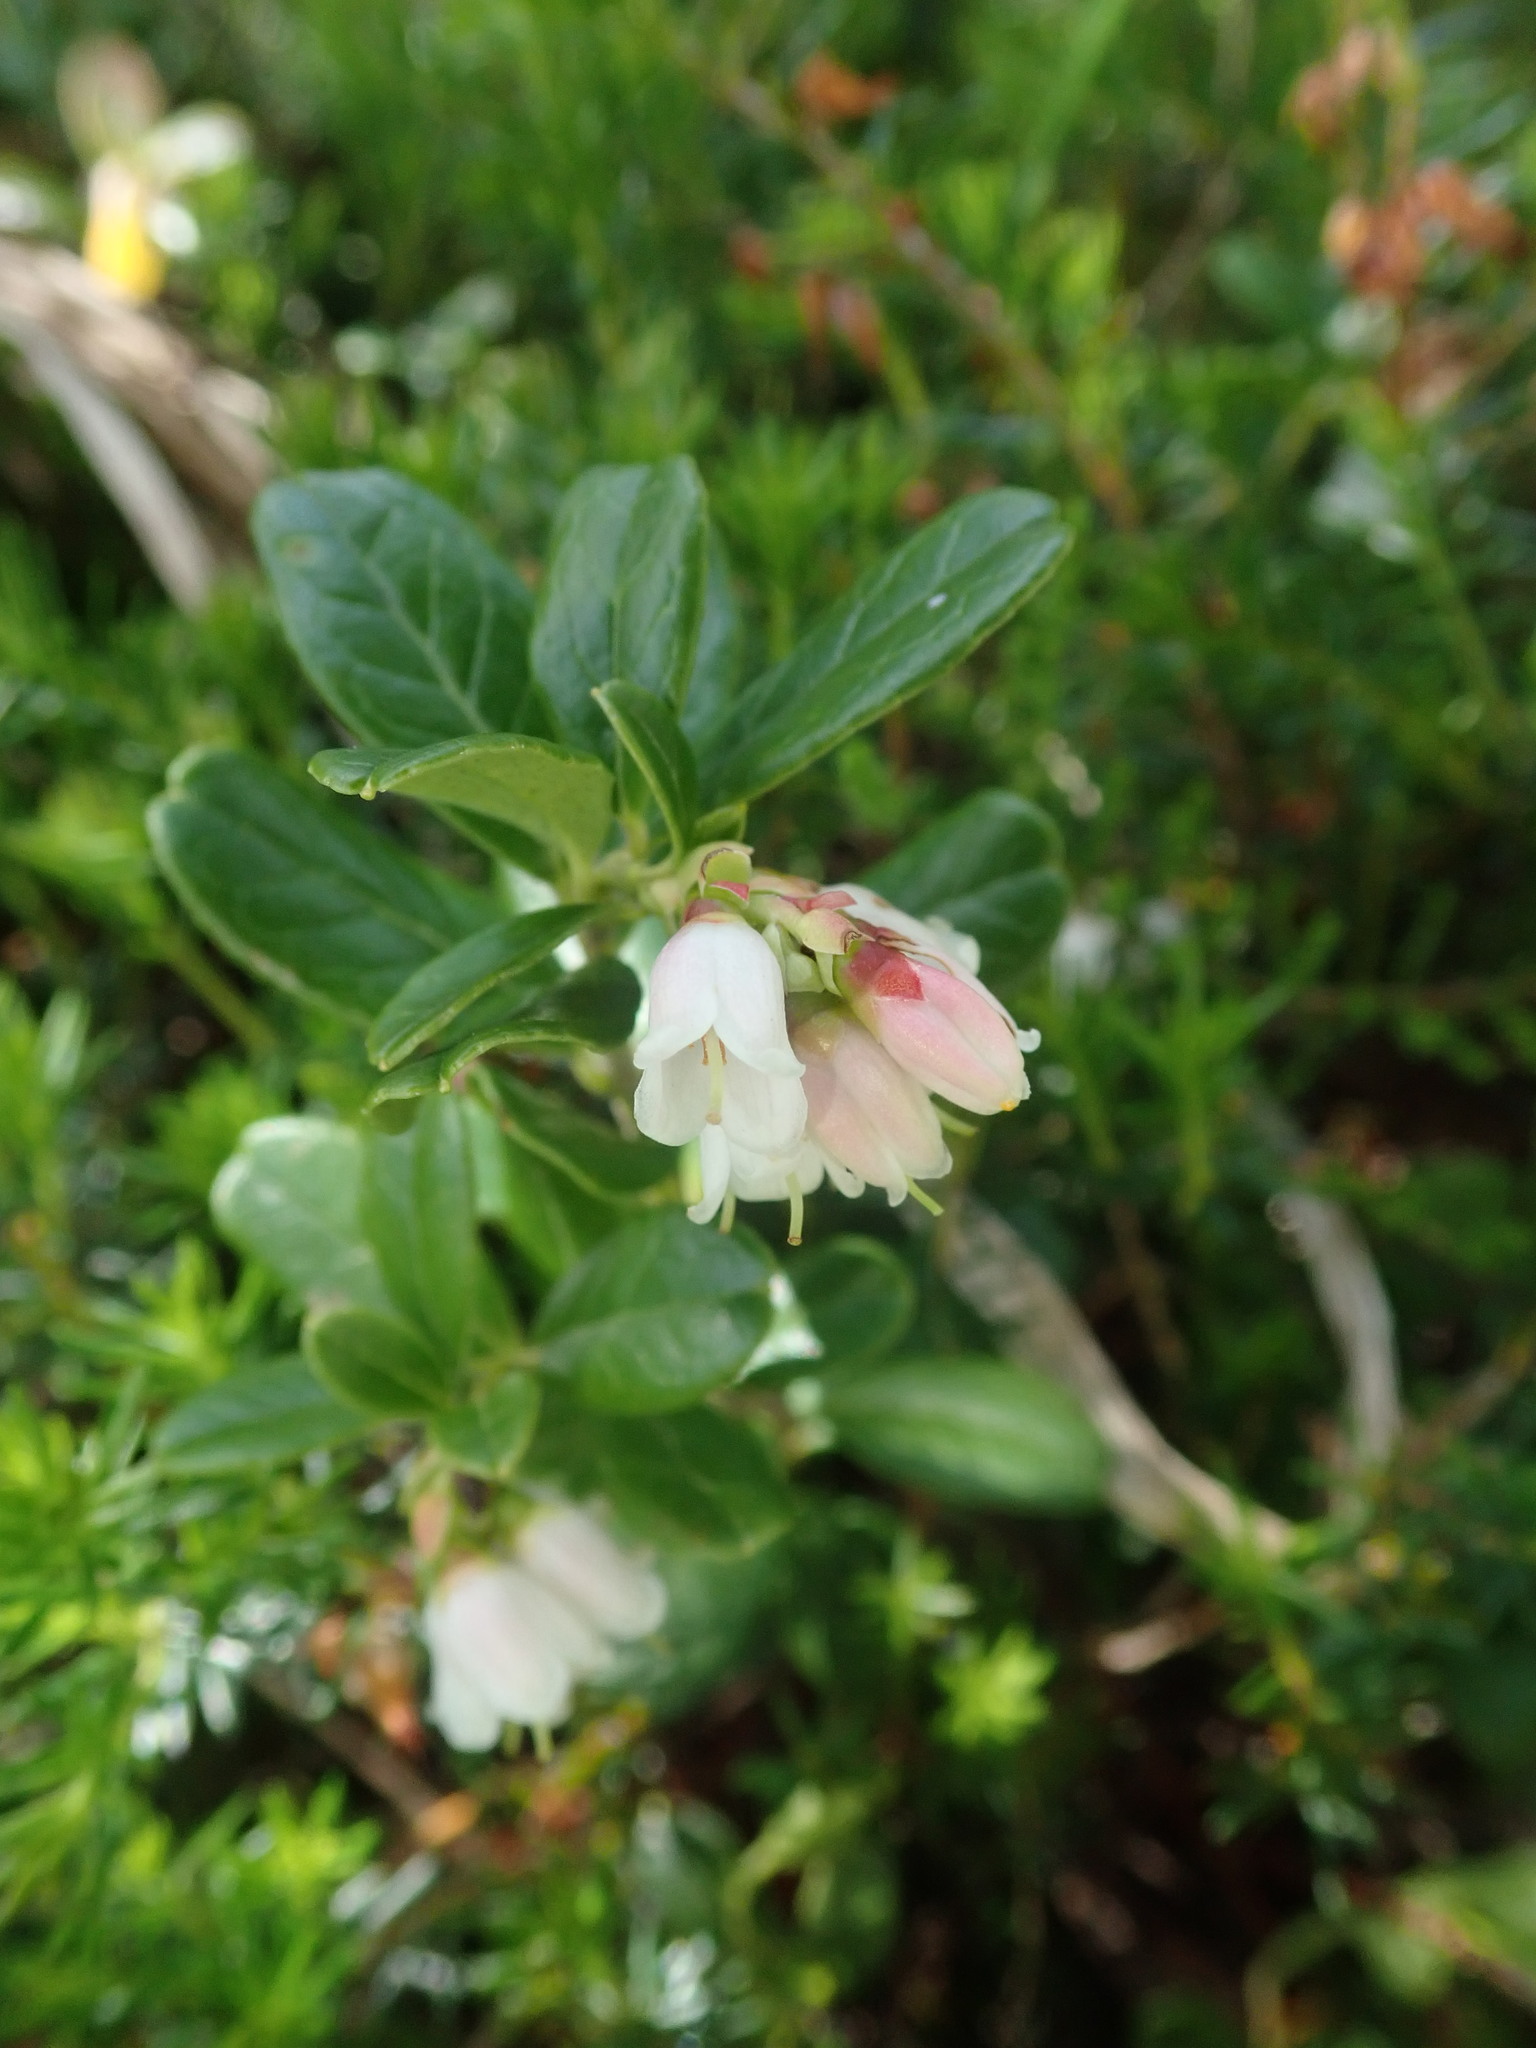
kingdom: Plantae
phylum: Tracheophyta
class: Magnoliopsida
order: Ericales
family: Ericaceae
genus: Vaccinium
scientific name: Vaccinium vitis-idaea
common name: Cowberry
